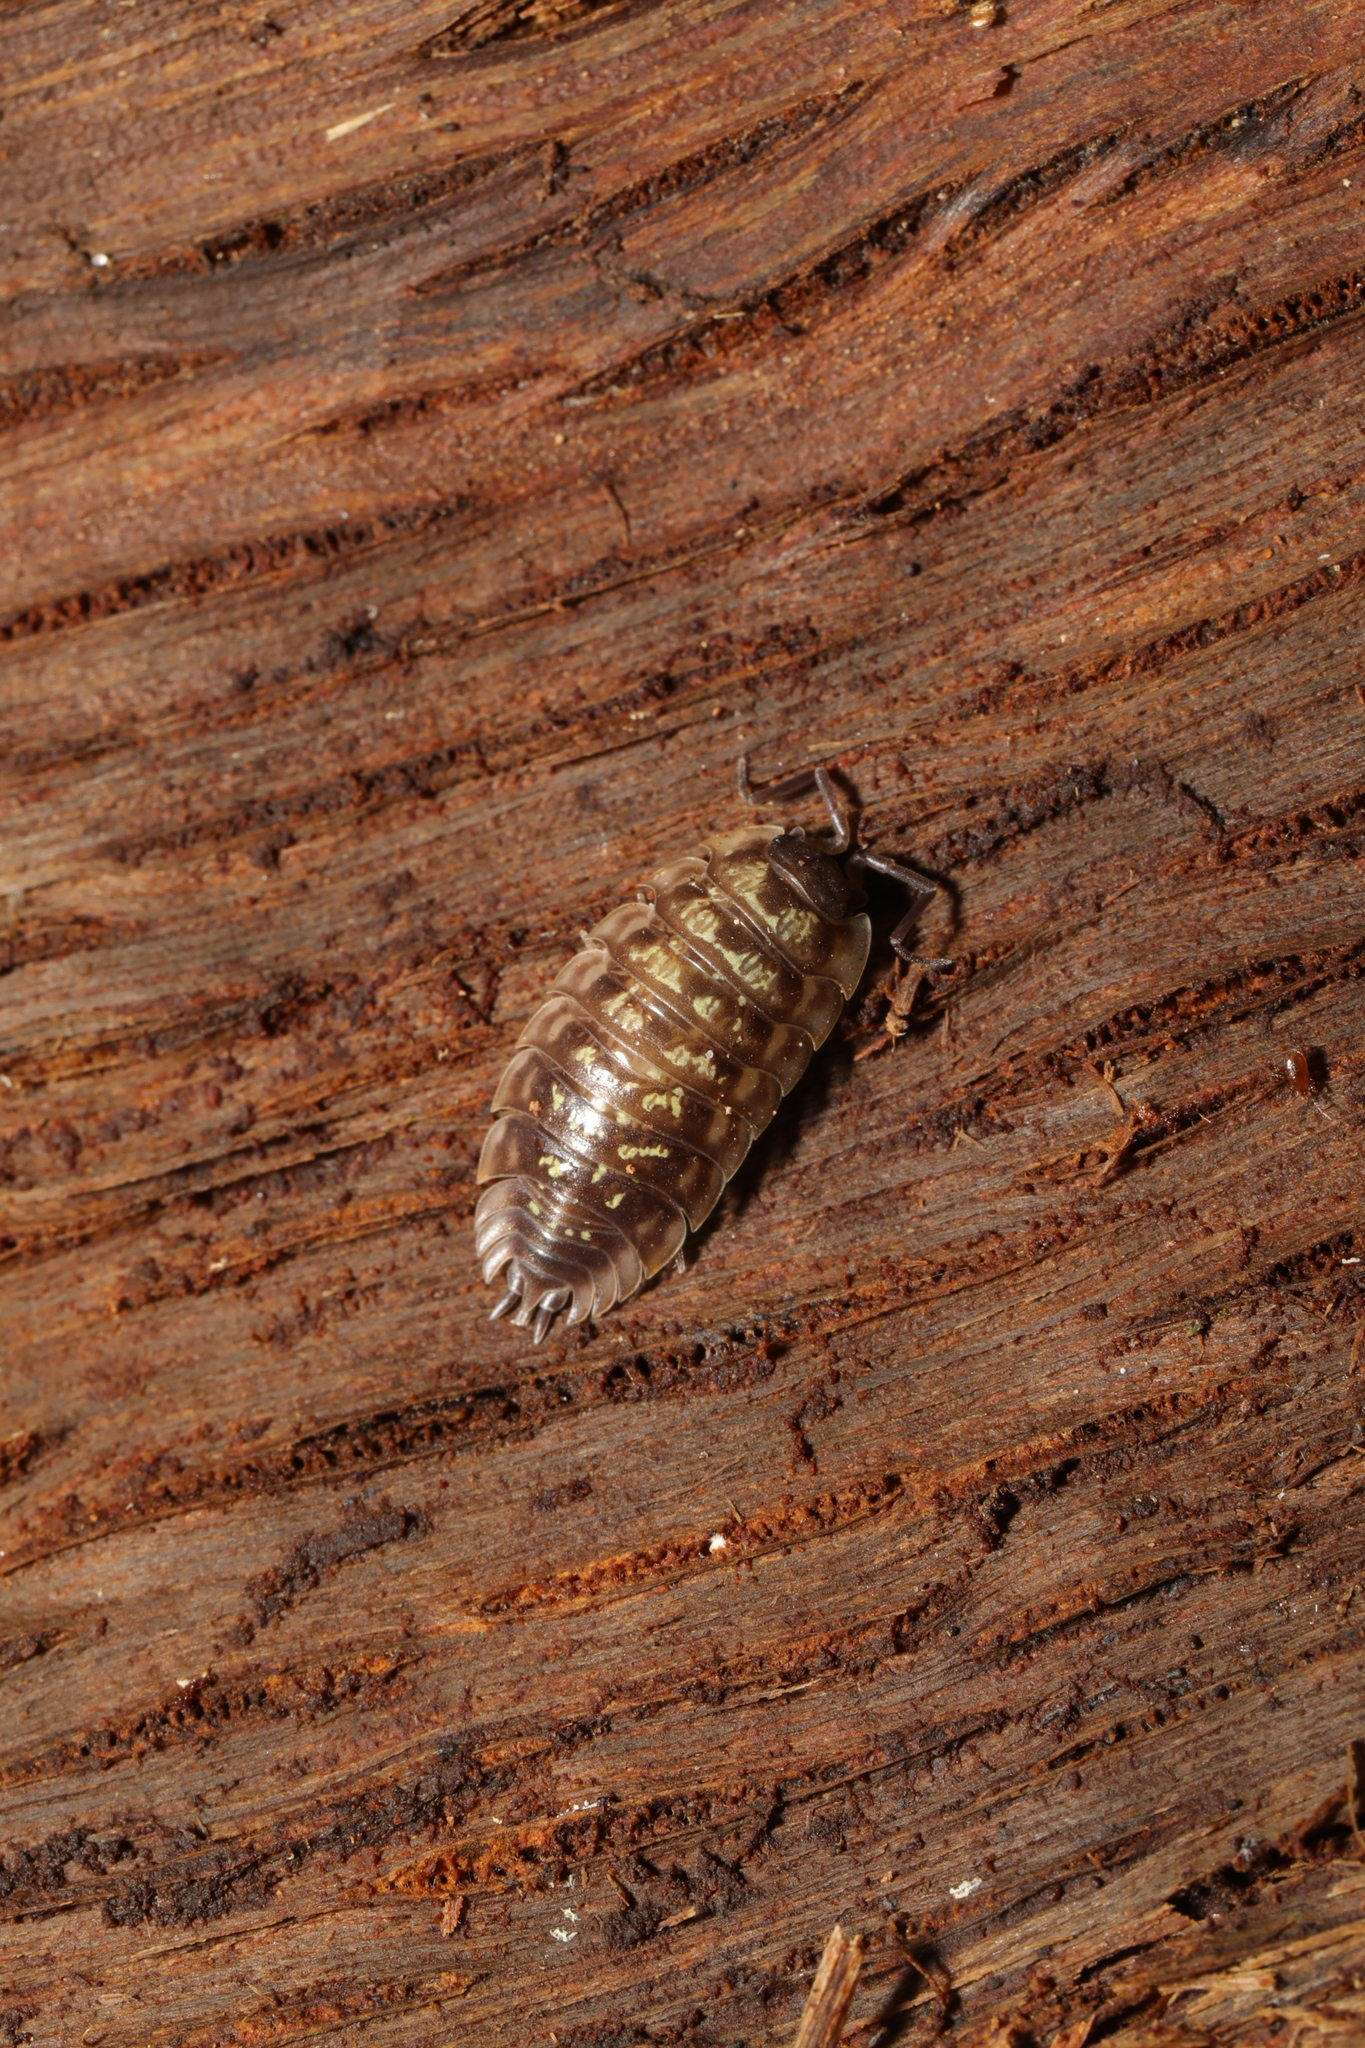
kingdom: Animalia
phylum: Arthropoda
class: Malacostraca
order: Isopoda
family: Oniscidae
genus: Oniscus
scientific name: Oniscus asellus
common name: Common shiny woodlouse
